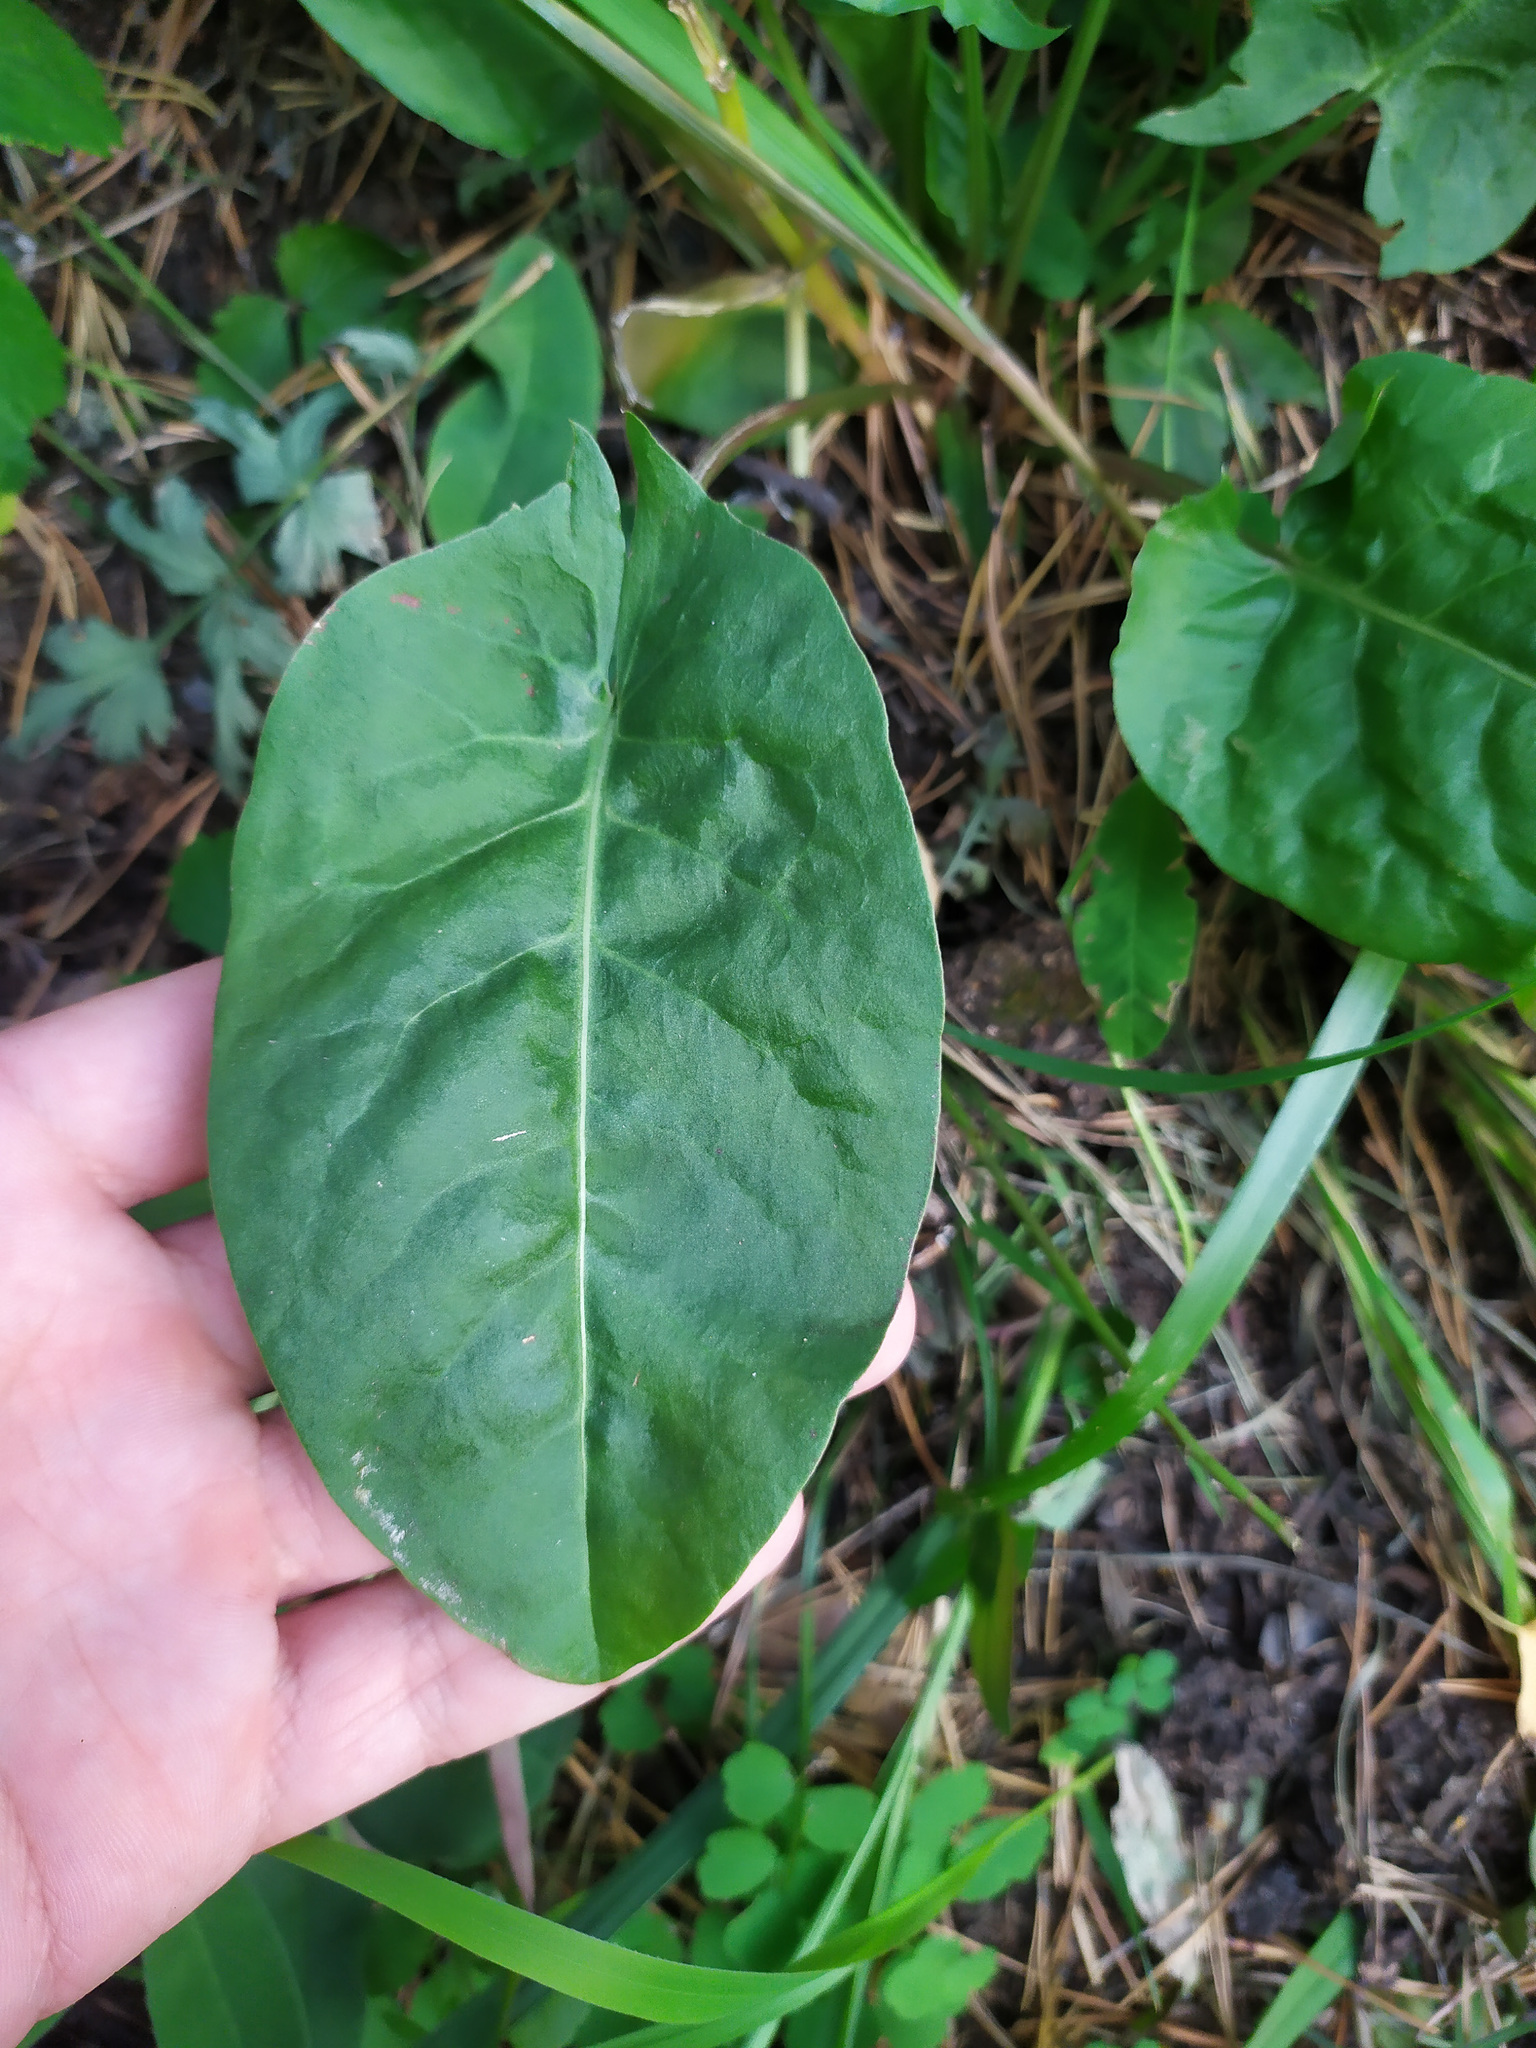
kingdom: Plantae
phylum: Tracheophyta
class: Magnoliopsida
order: Caryophyllales
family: Polygonaceae
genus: Rumex
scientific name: Rumex
